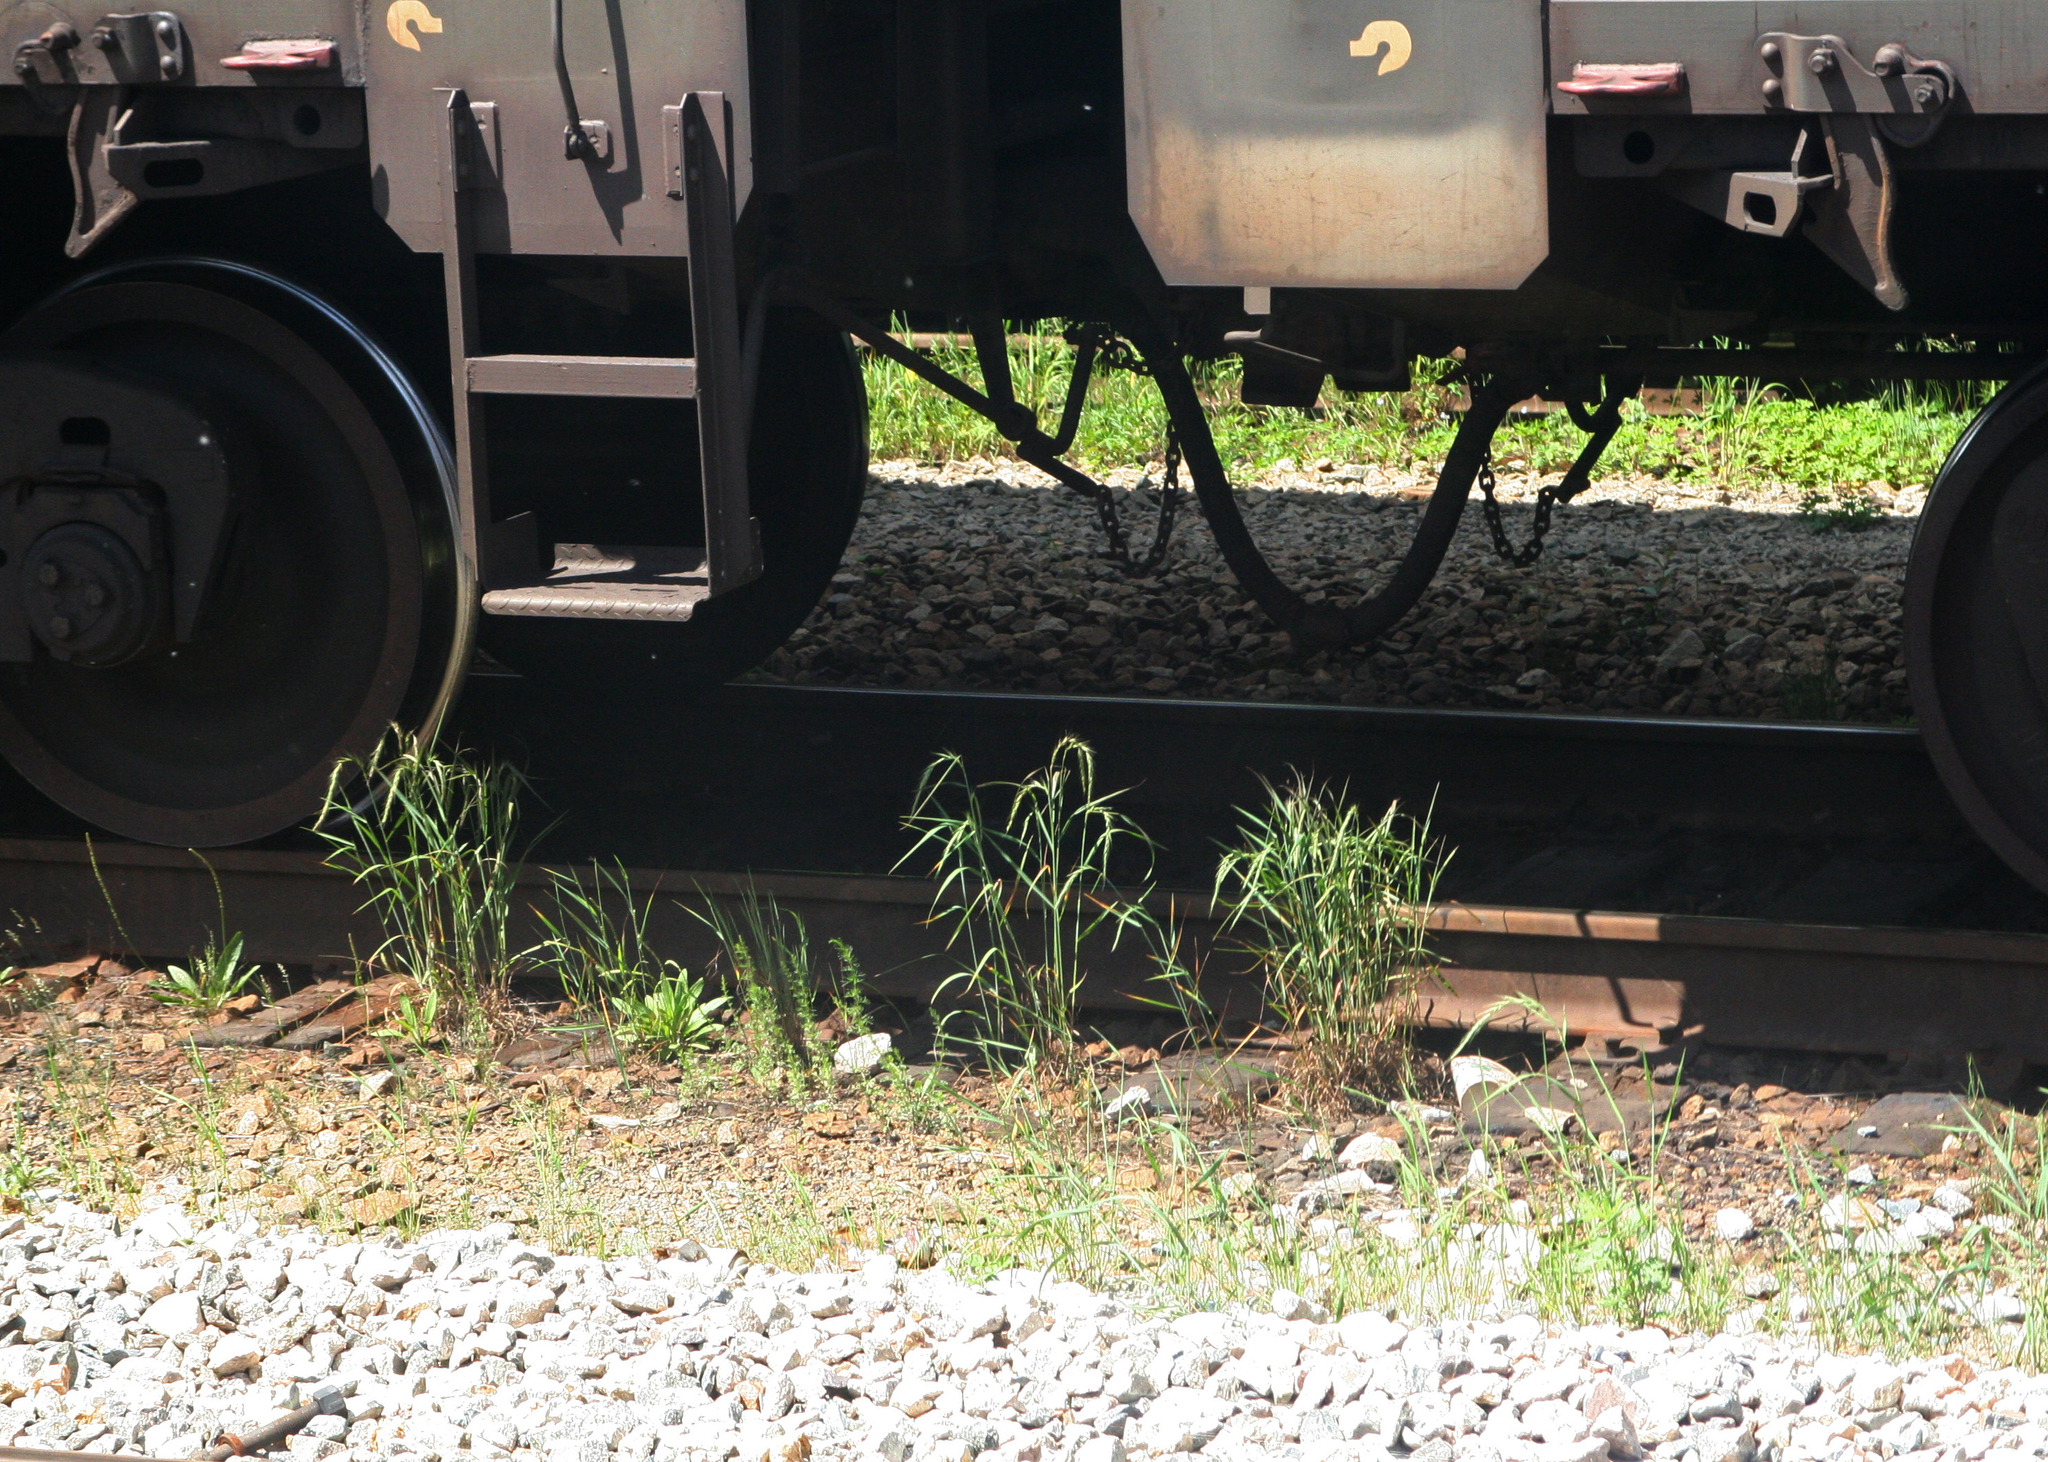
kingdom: Plantae
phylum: Tracheophyta
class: Liliopsida
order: Poales
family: Poaceae
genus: Elymus
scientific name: Elymus sibiricus
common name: Siberian wildrye
